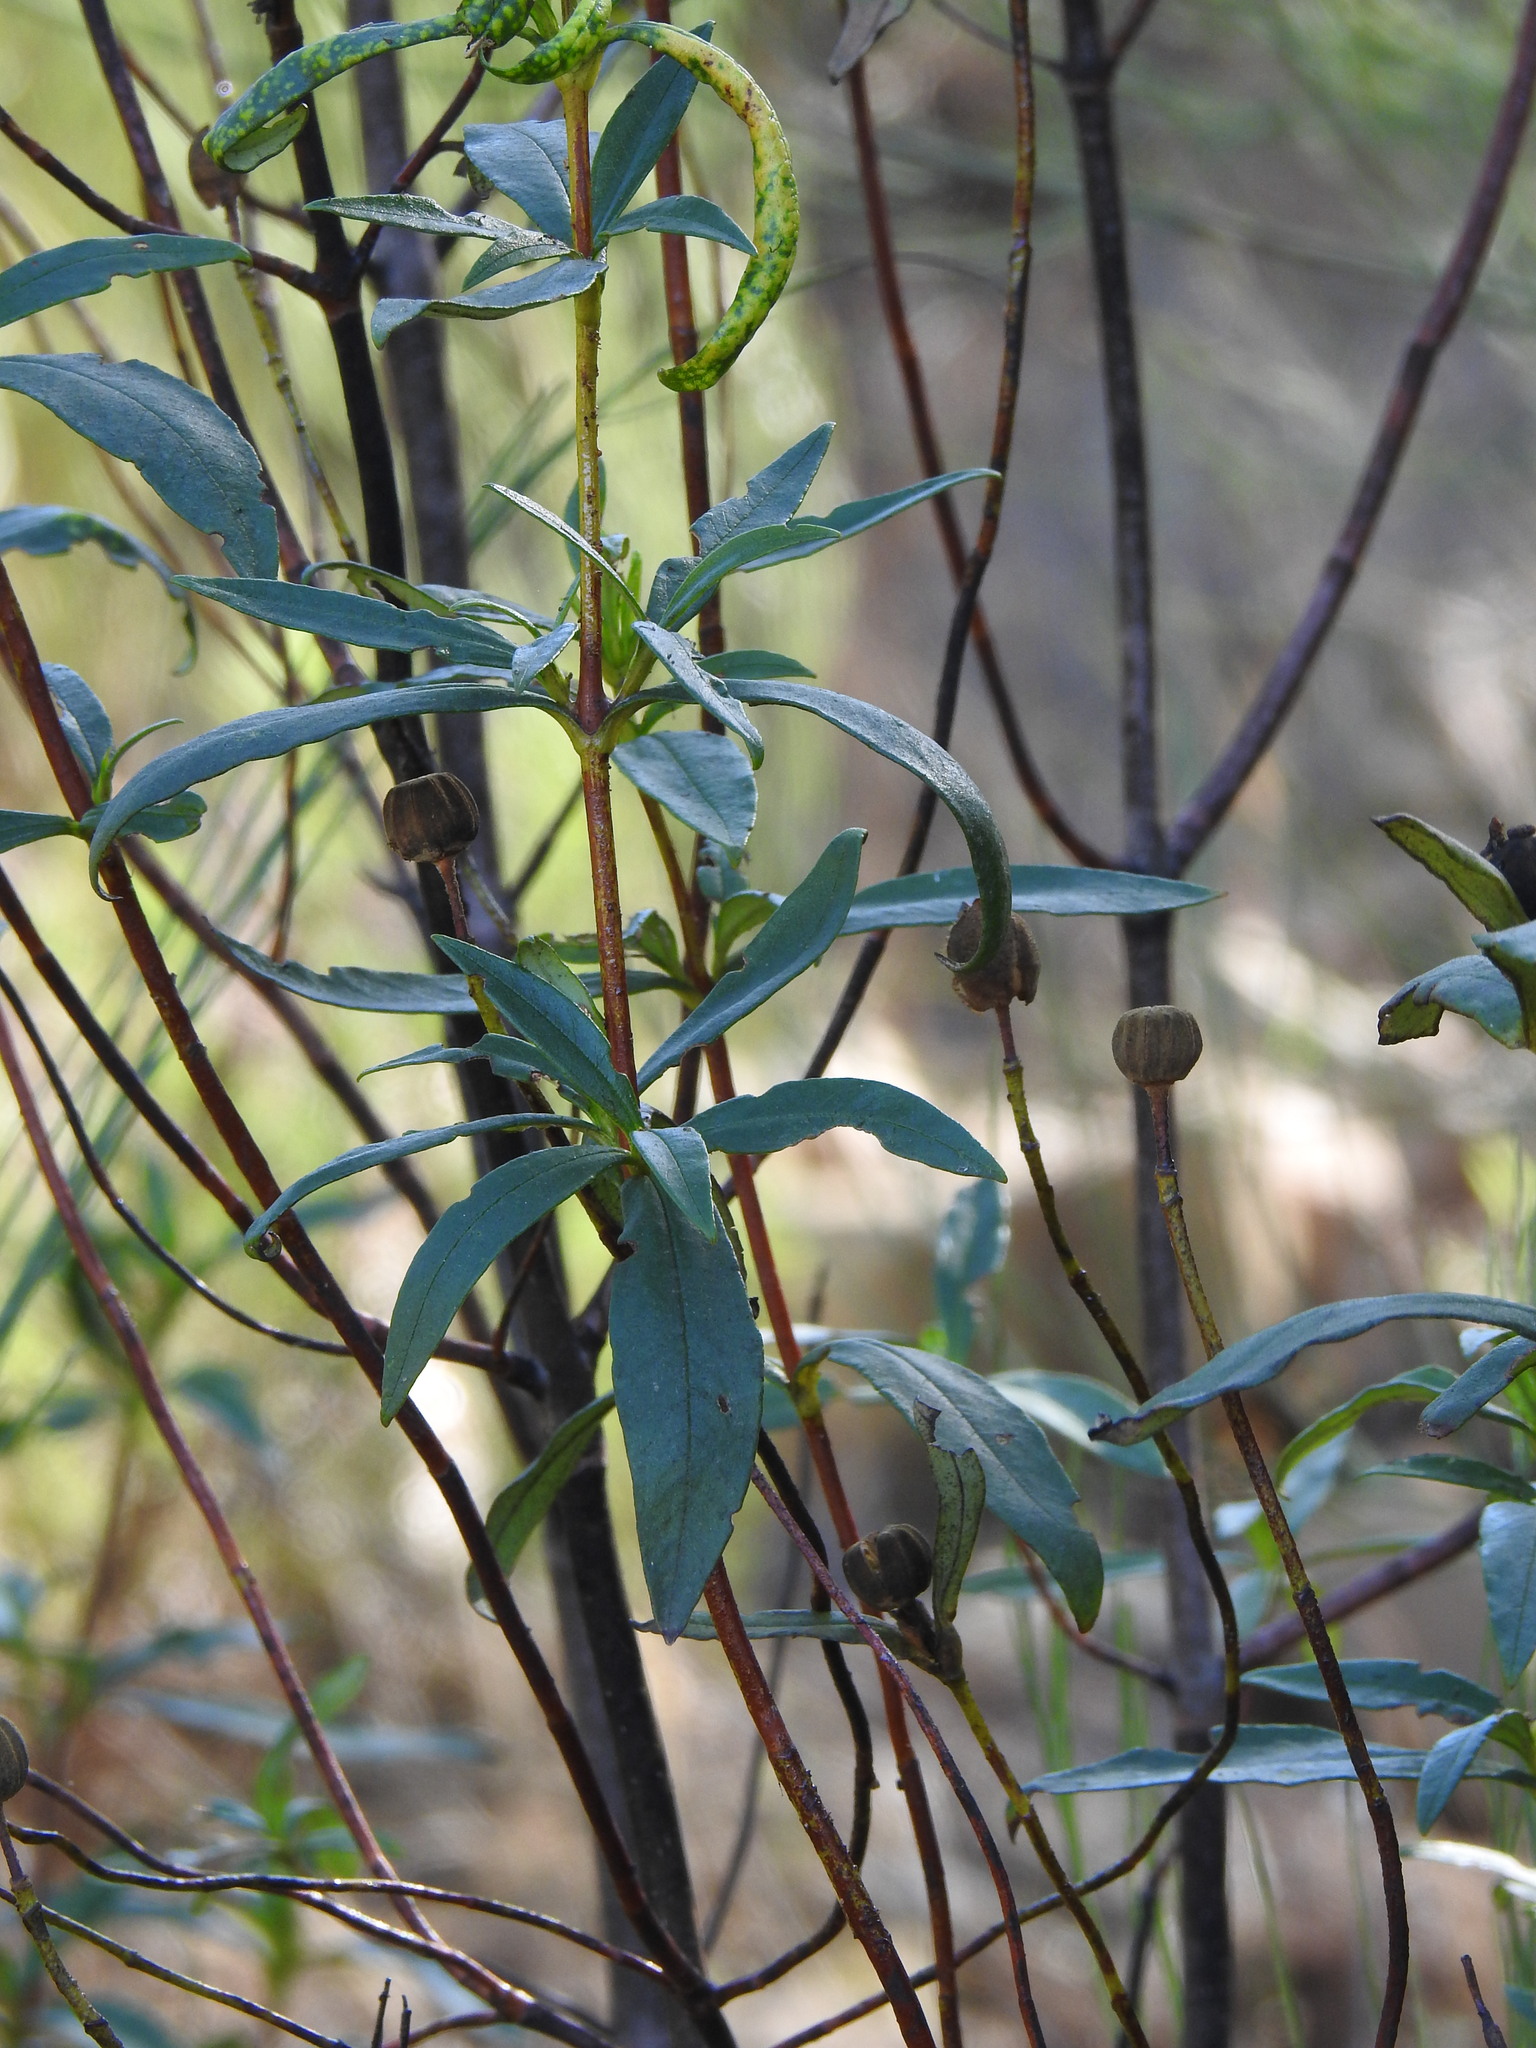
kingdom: Plantae
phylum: Tracheophyta
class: Magnoliopsida
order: Malvales
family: Cistaceae
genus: Cistus
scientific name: Cistus ladanifer
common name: Common gum cistus
